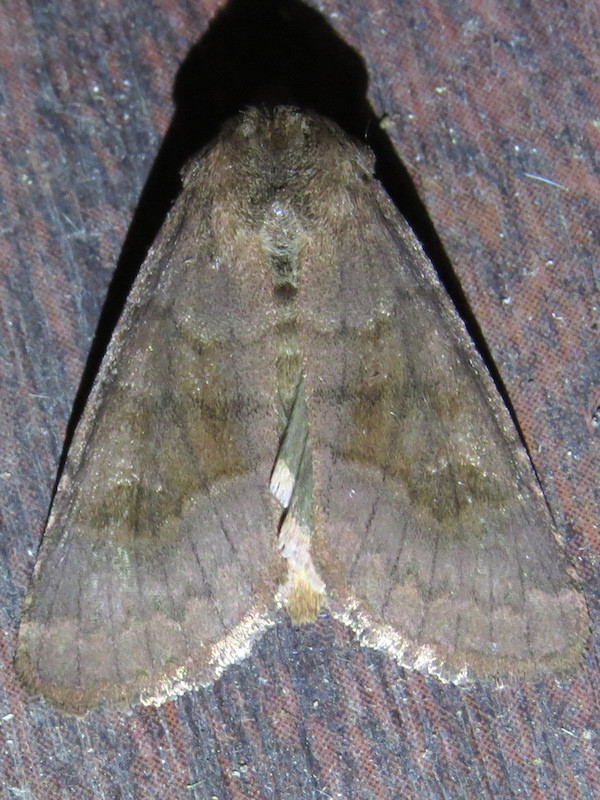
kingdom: Animalia
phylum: Arthropoda
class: Insecta
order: Lepidoptera
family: Noctuidae
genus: Nephelodes
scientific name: Nephelodes minians
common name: Bronzed cutworm
